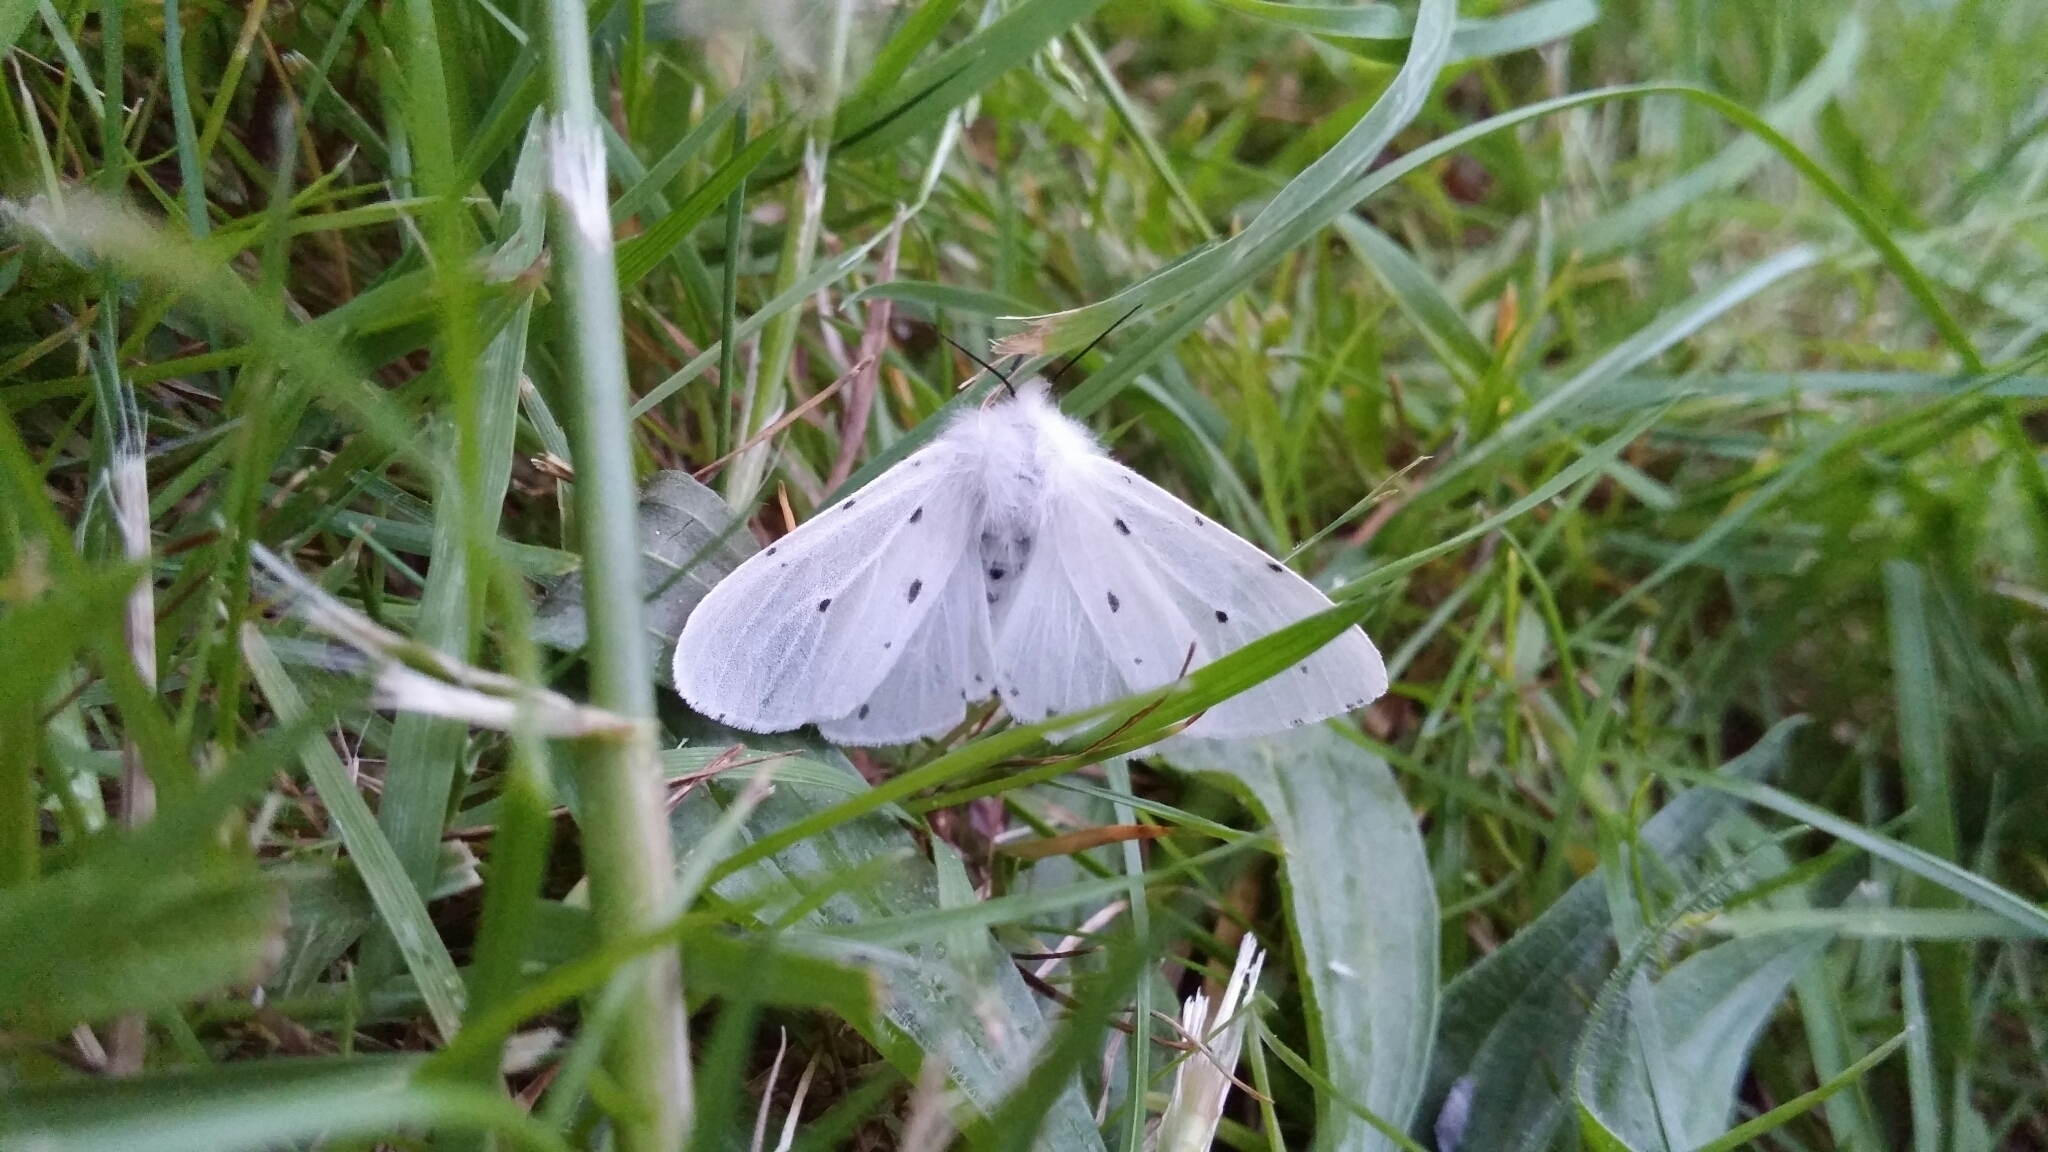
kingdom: Animalia
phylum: Arthropoda
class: Insecta
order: Lepidoptera
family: Erebidae
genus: Diaphora
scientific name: Diaphora mendica
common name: Muslin moth
